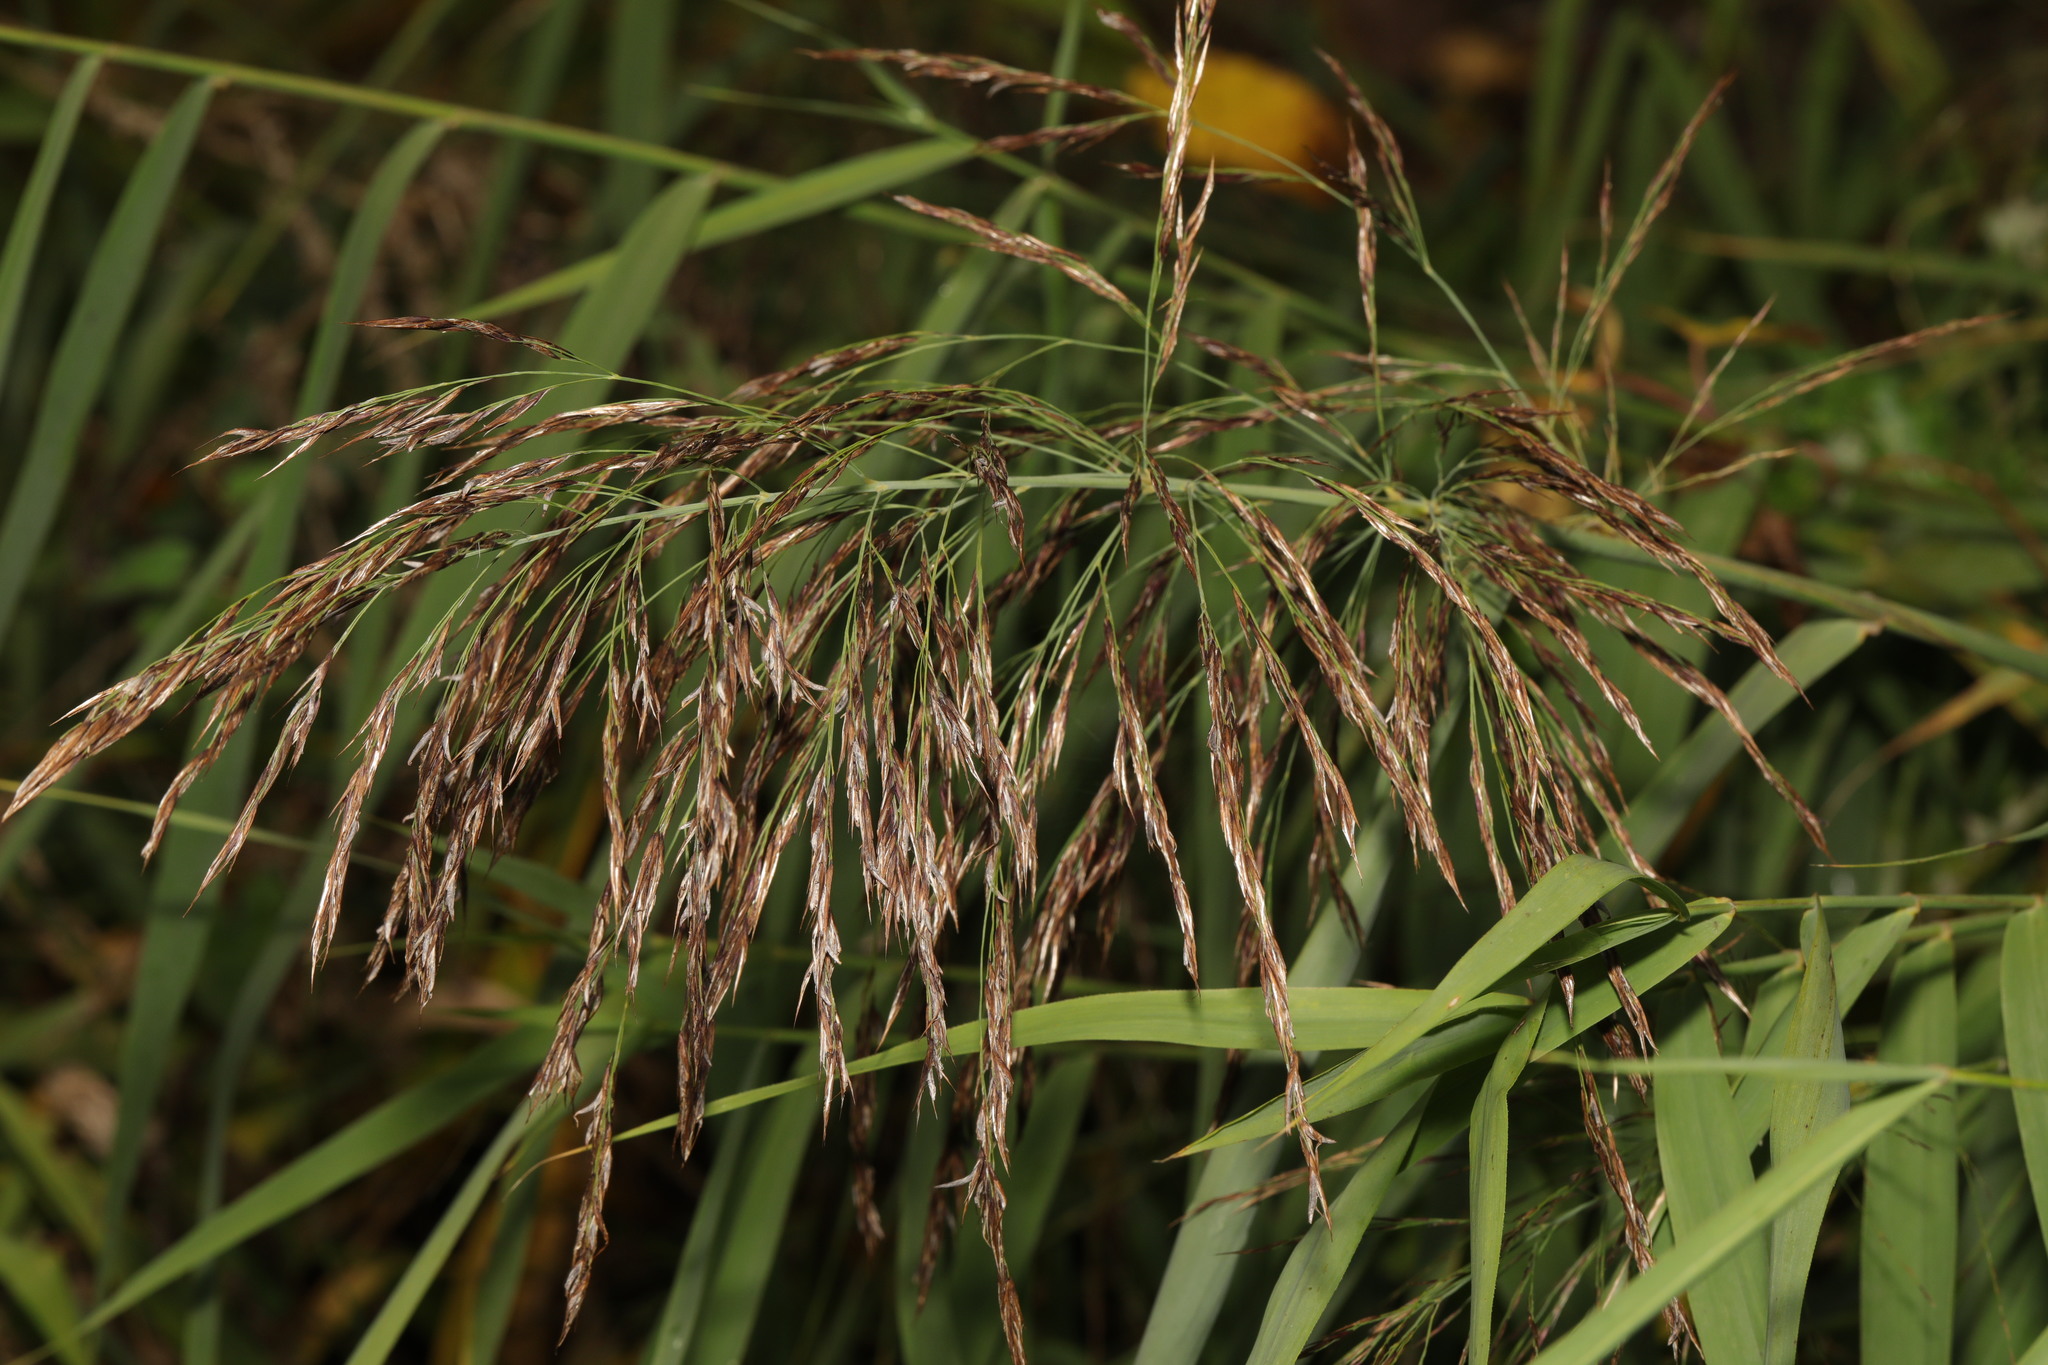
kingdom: Plantae
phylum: Tracheophyta
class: Liliopsida
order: Poales
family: Poaceae
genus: Phragmites
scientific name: Phragmites australis
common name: Common reed
